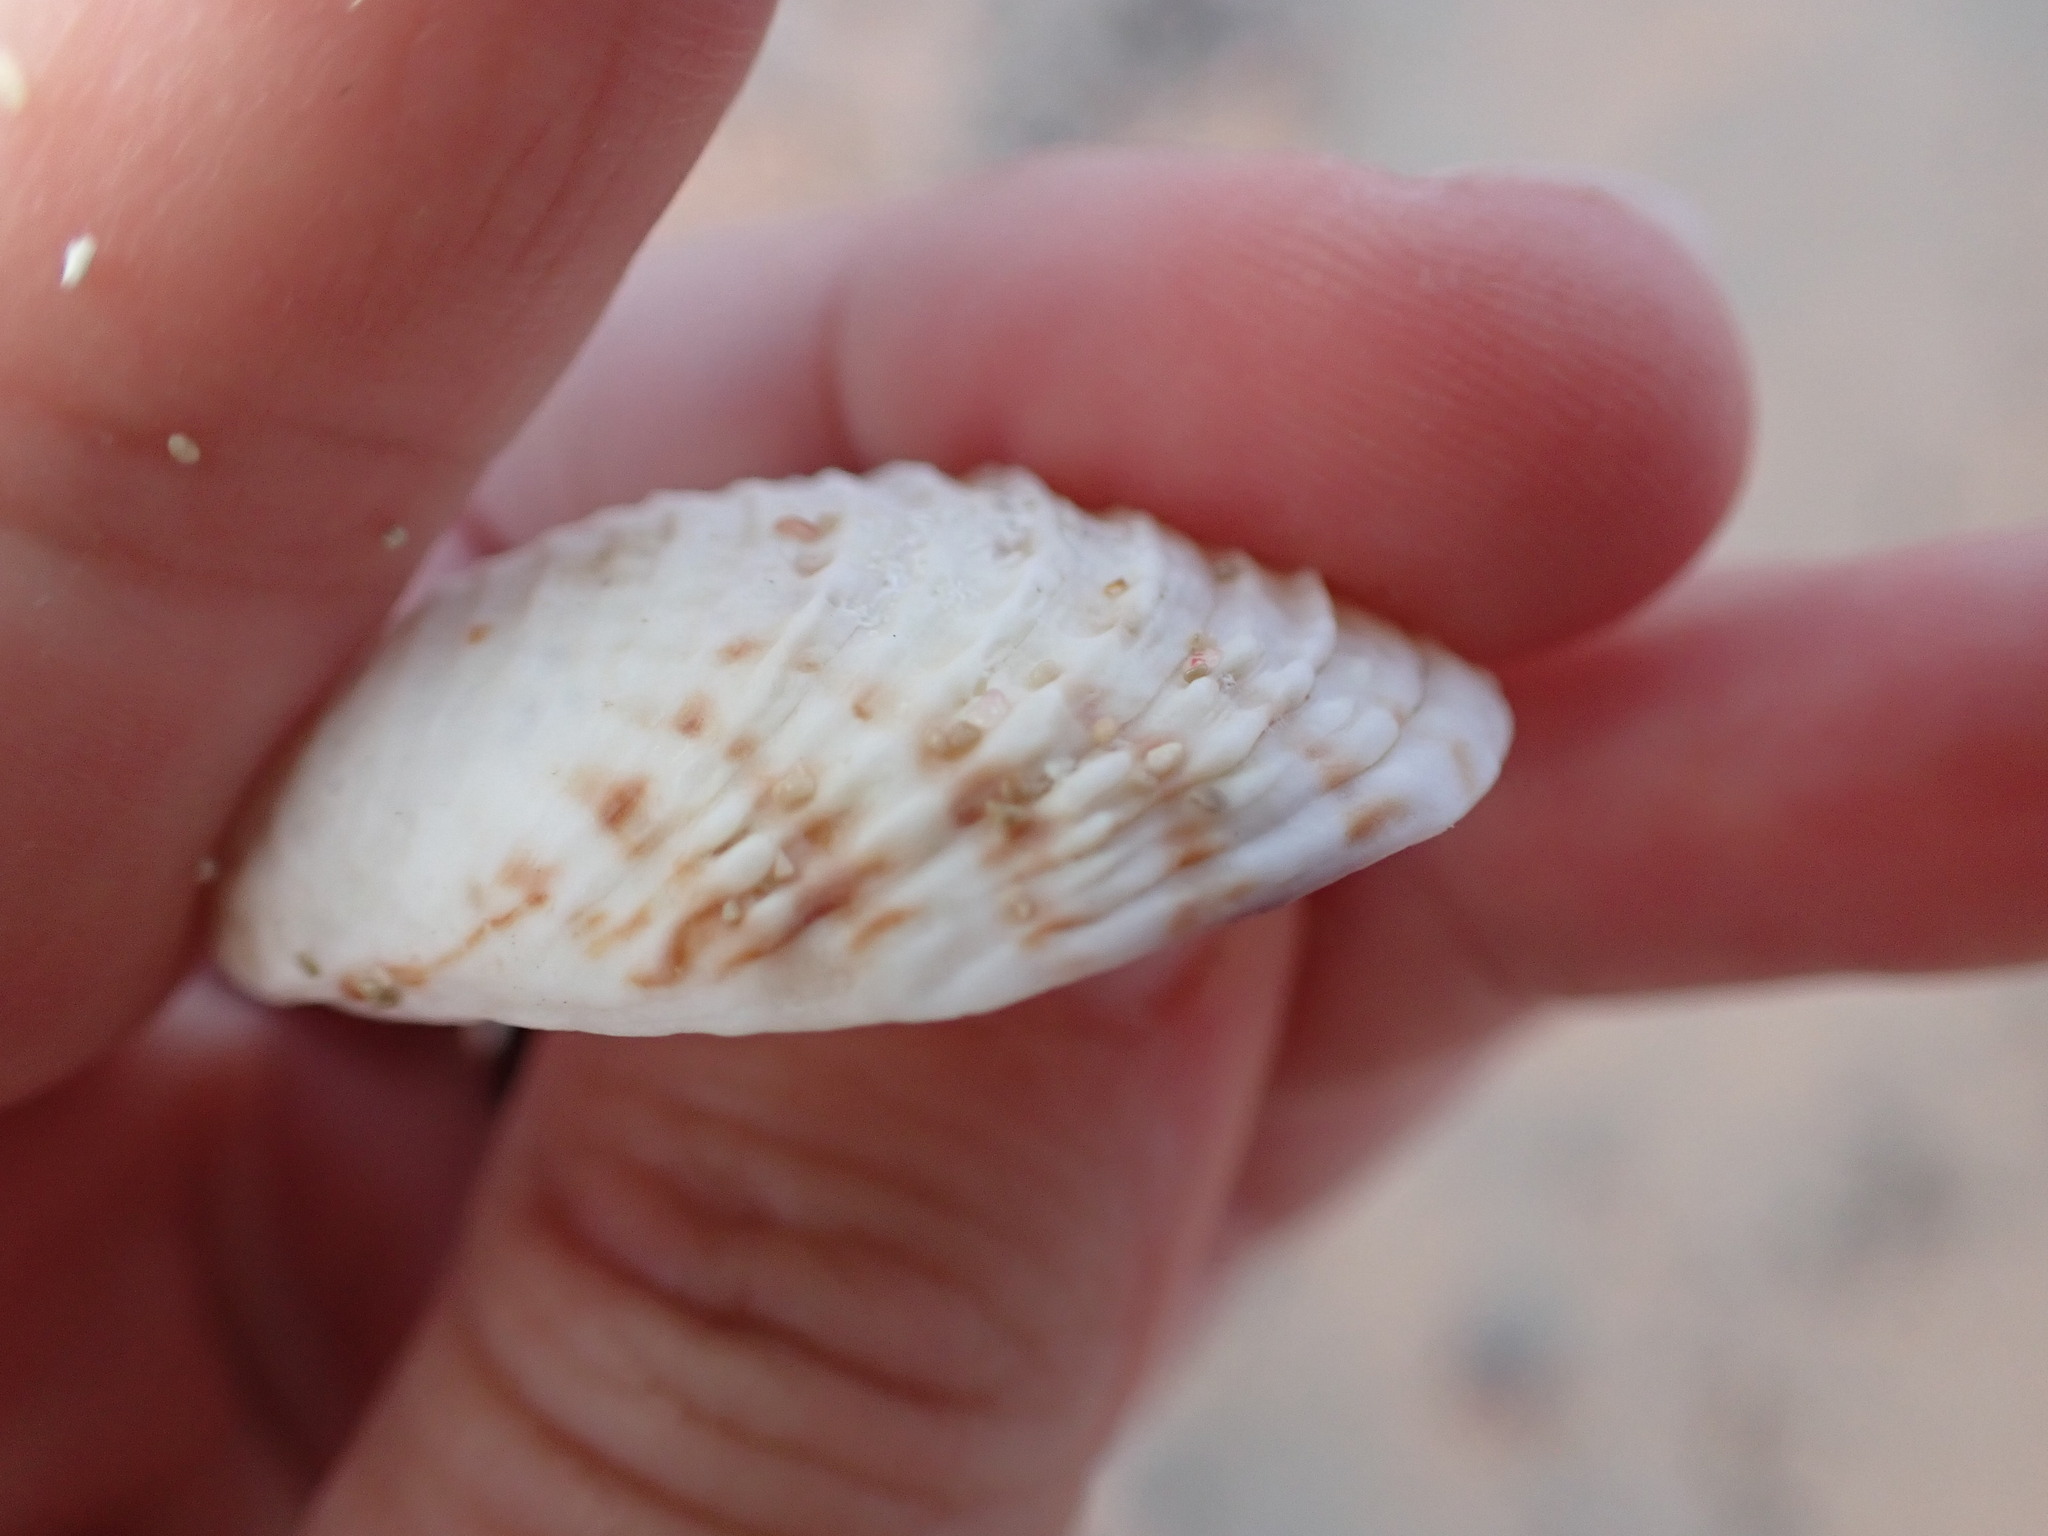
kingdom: Animalia
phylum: Mollusca
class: Bivalvia
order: Venerida
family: Veneridae
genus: Venus
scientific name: Venus verrucosa
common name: Warty venus
